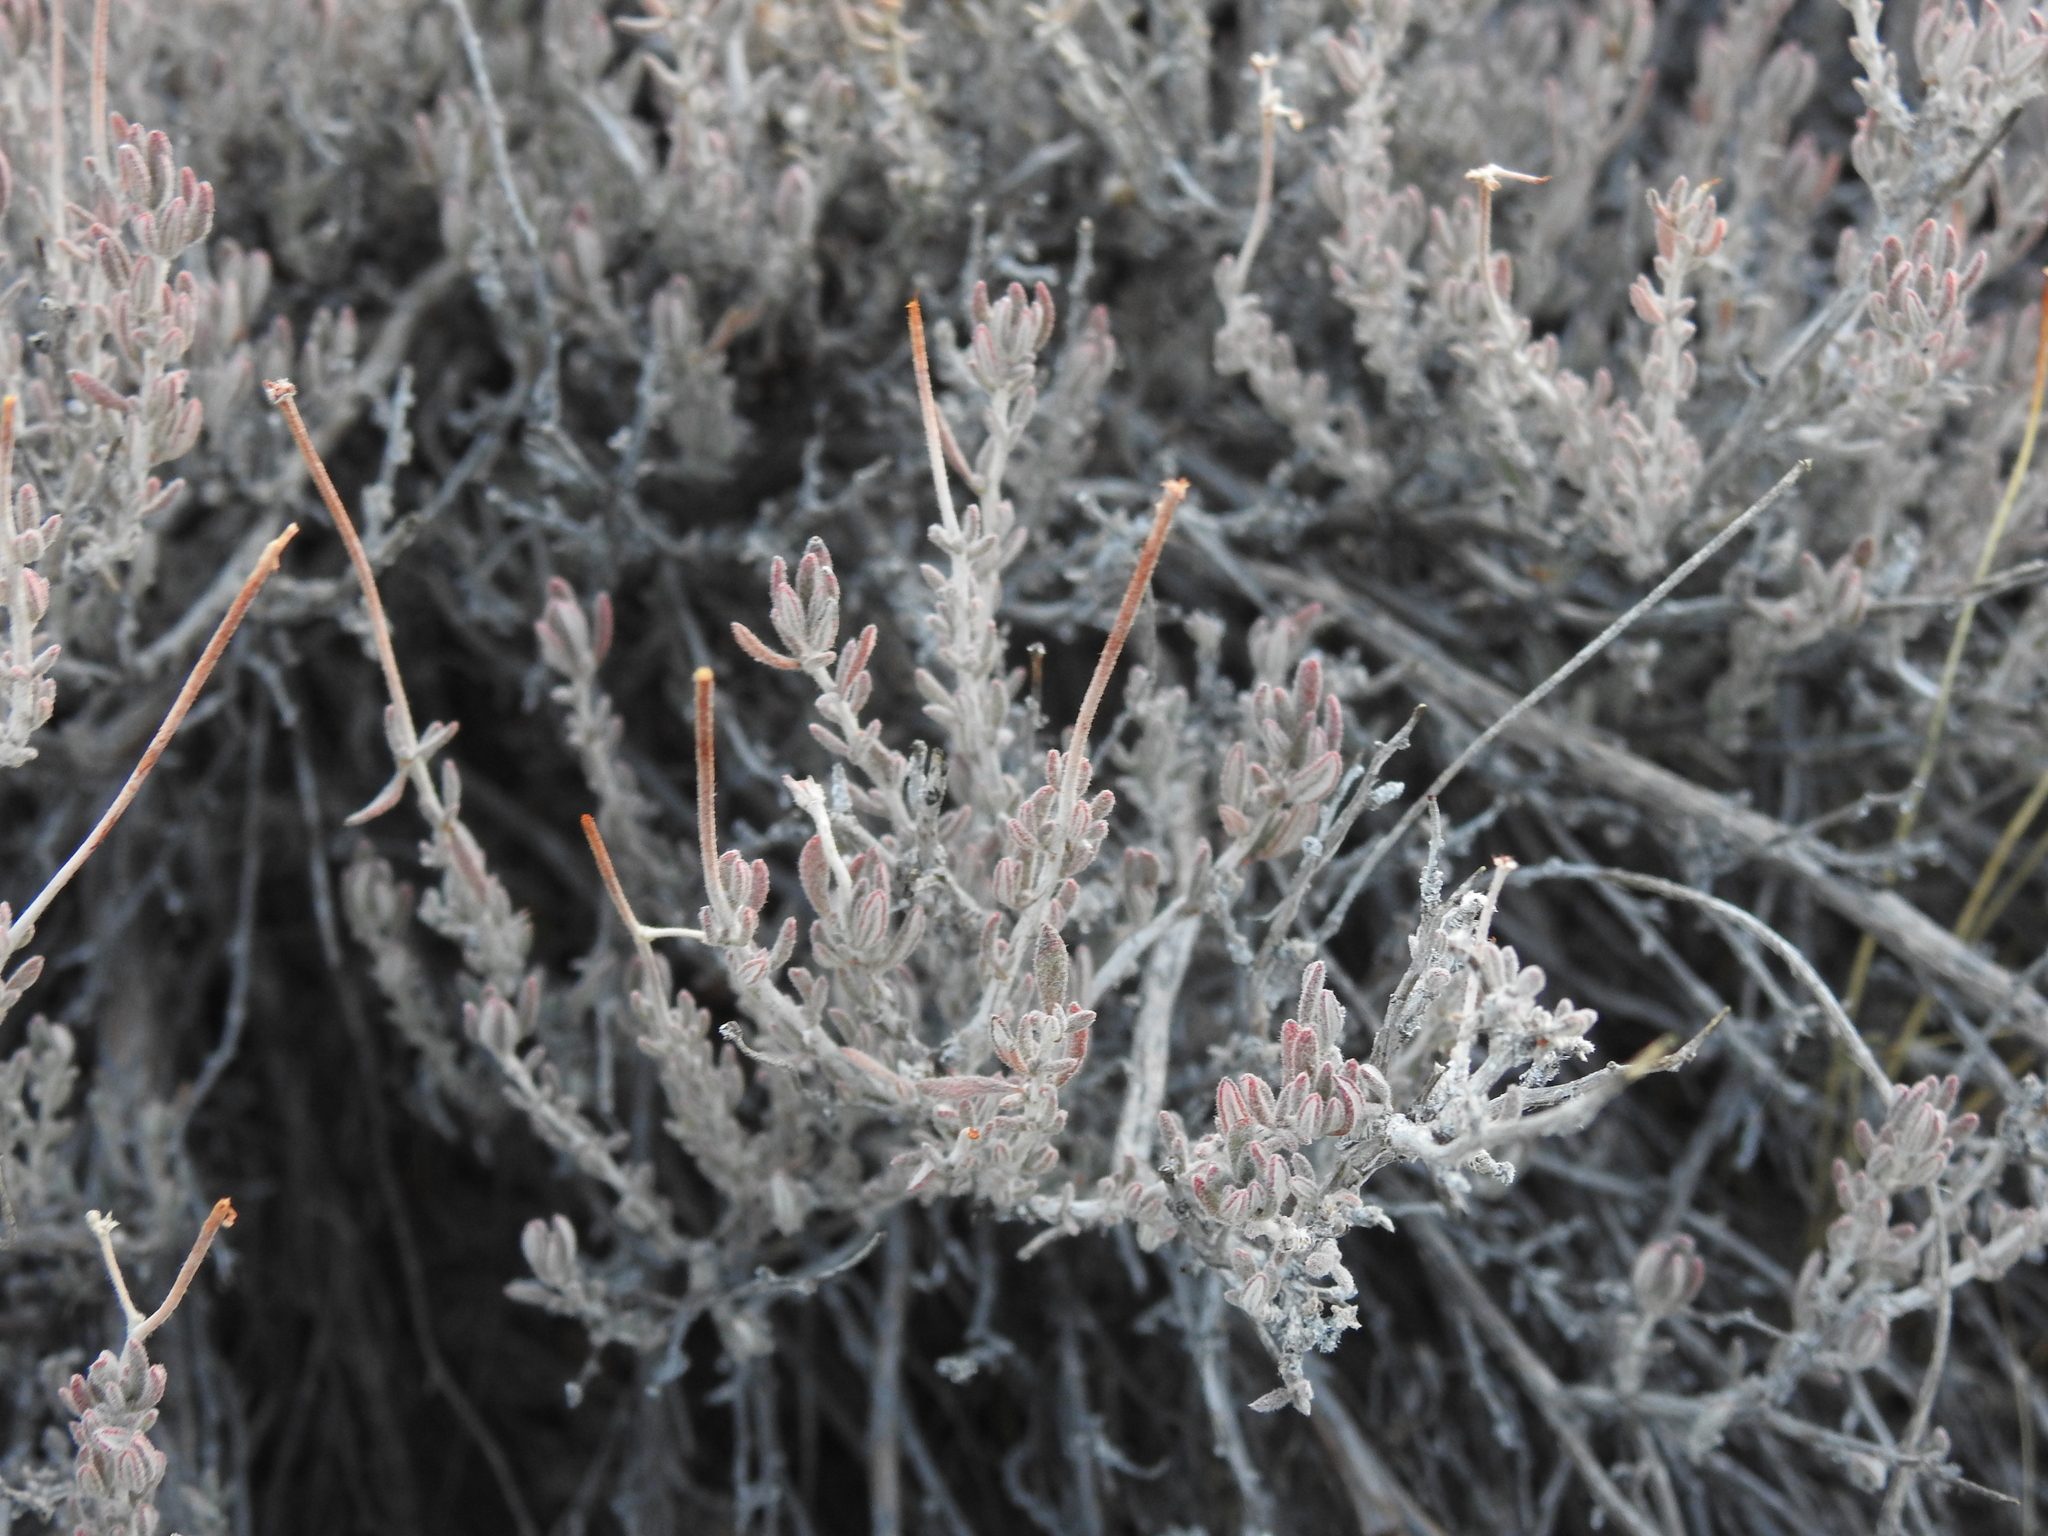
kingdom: Plantae
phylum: Tracheophyta
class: Magnoliopsida
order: Caryophyllales
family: Polygonaceae
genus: Eriogonum
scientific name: Eriogonum fasciculatum
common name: California wild buckwheat
